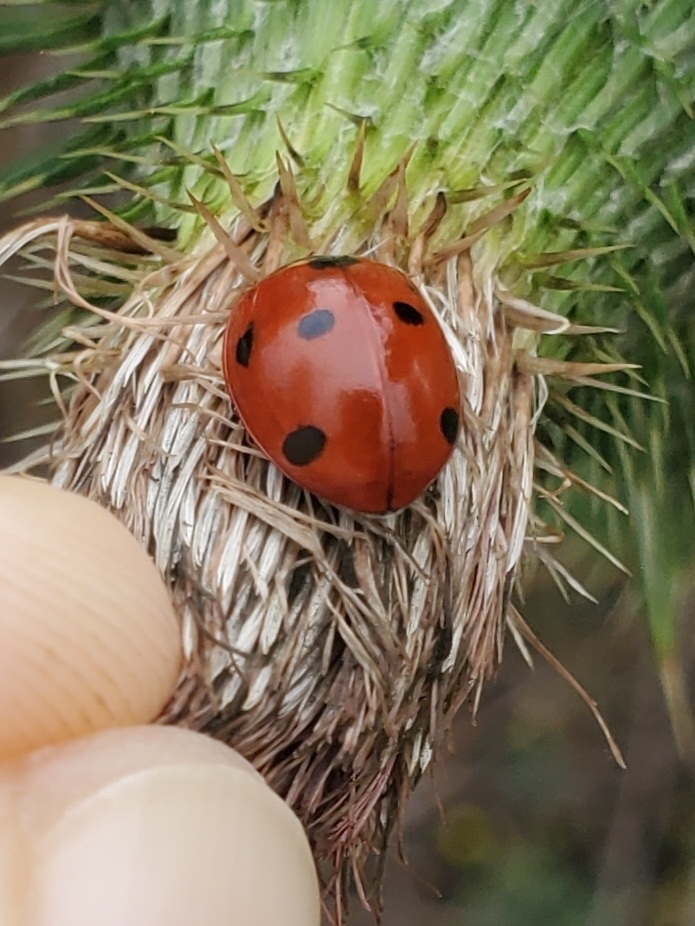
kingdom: Animalia
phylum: Arthropoda
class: Insecta
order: Coleoptera
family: Coccinellidae
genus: Coccinella
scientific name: Coccinella septempunctata
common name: Sevenspotted lady beetle
